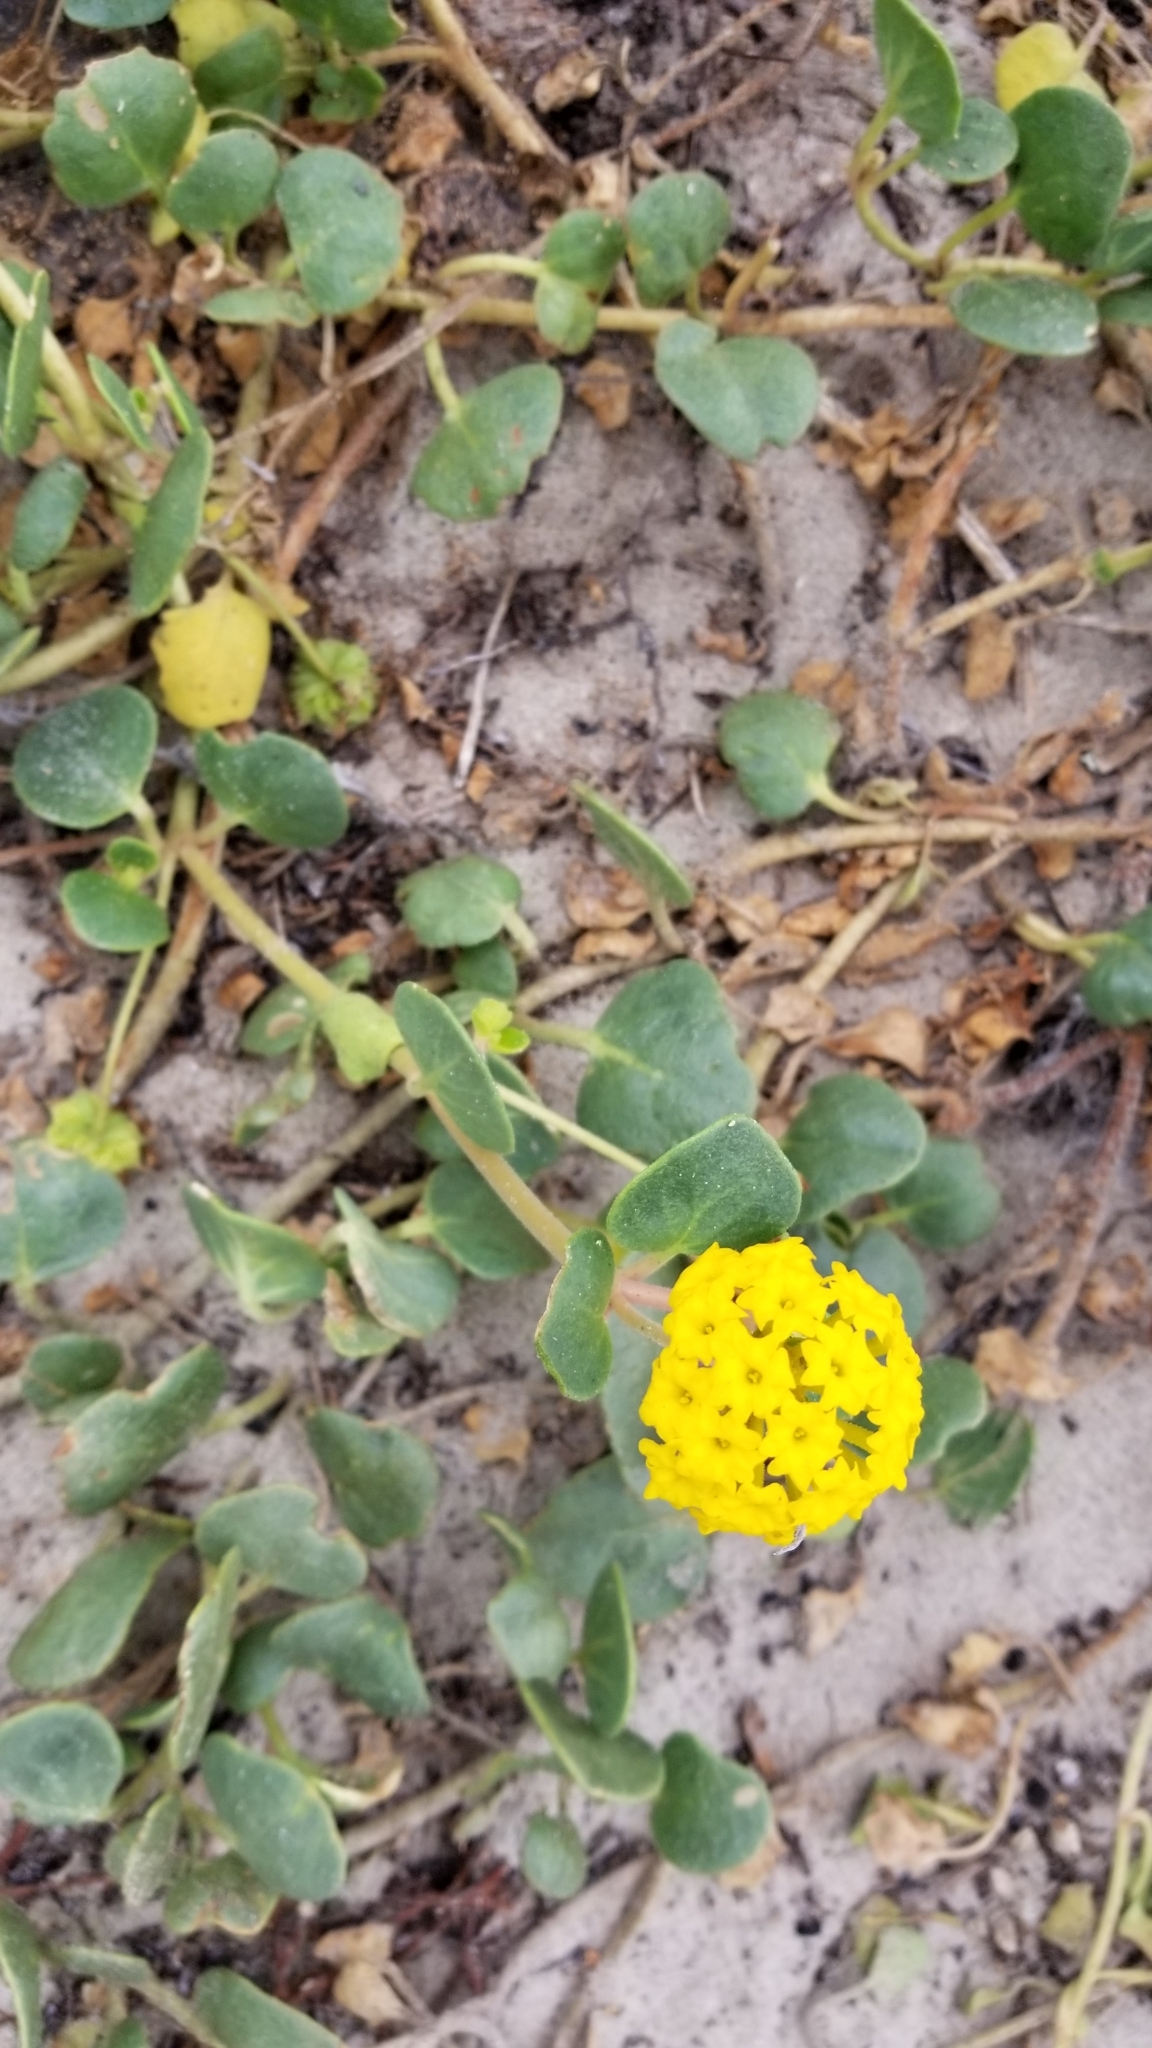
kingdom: Plantae
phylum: Tracheophyta
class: Magnoliopsida
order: Caryophyllales
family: Nyctaginaceae
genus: Abronia
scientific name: Abronia latifolia
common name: Yellow sand-verbena
